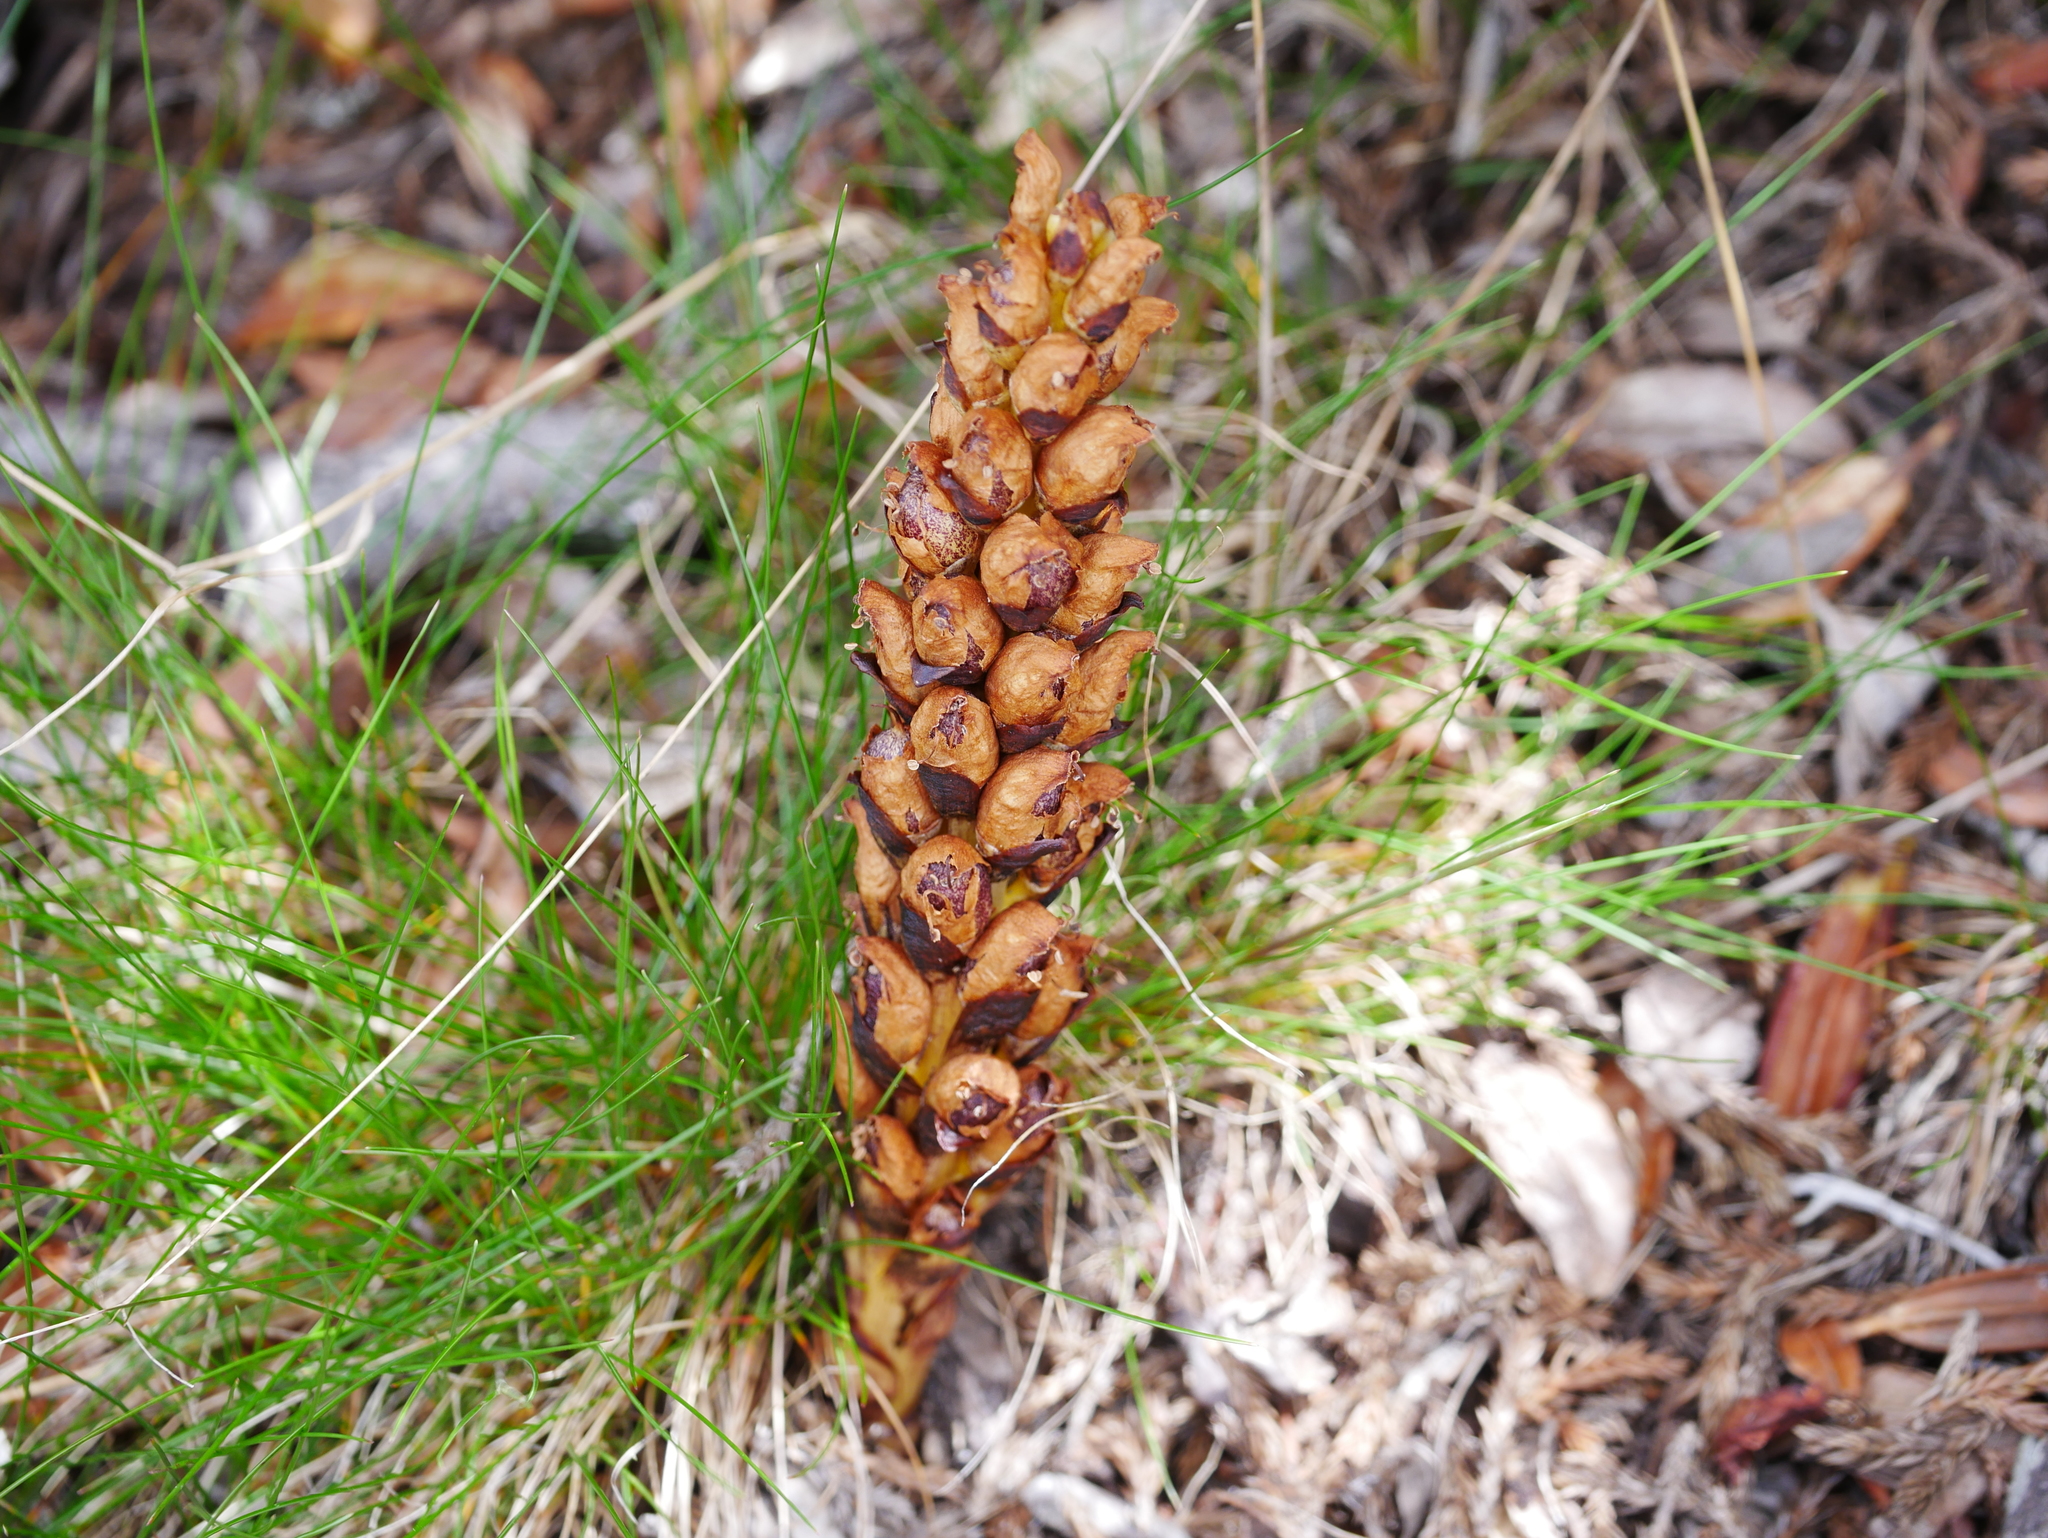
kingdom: Plantae
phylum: Tracheophyta
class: Magnoliopsida
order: Lamiales
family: Orobanchaceae
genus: Boschniakia
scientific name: Boschniakia himalaica
